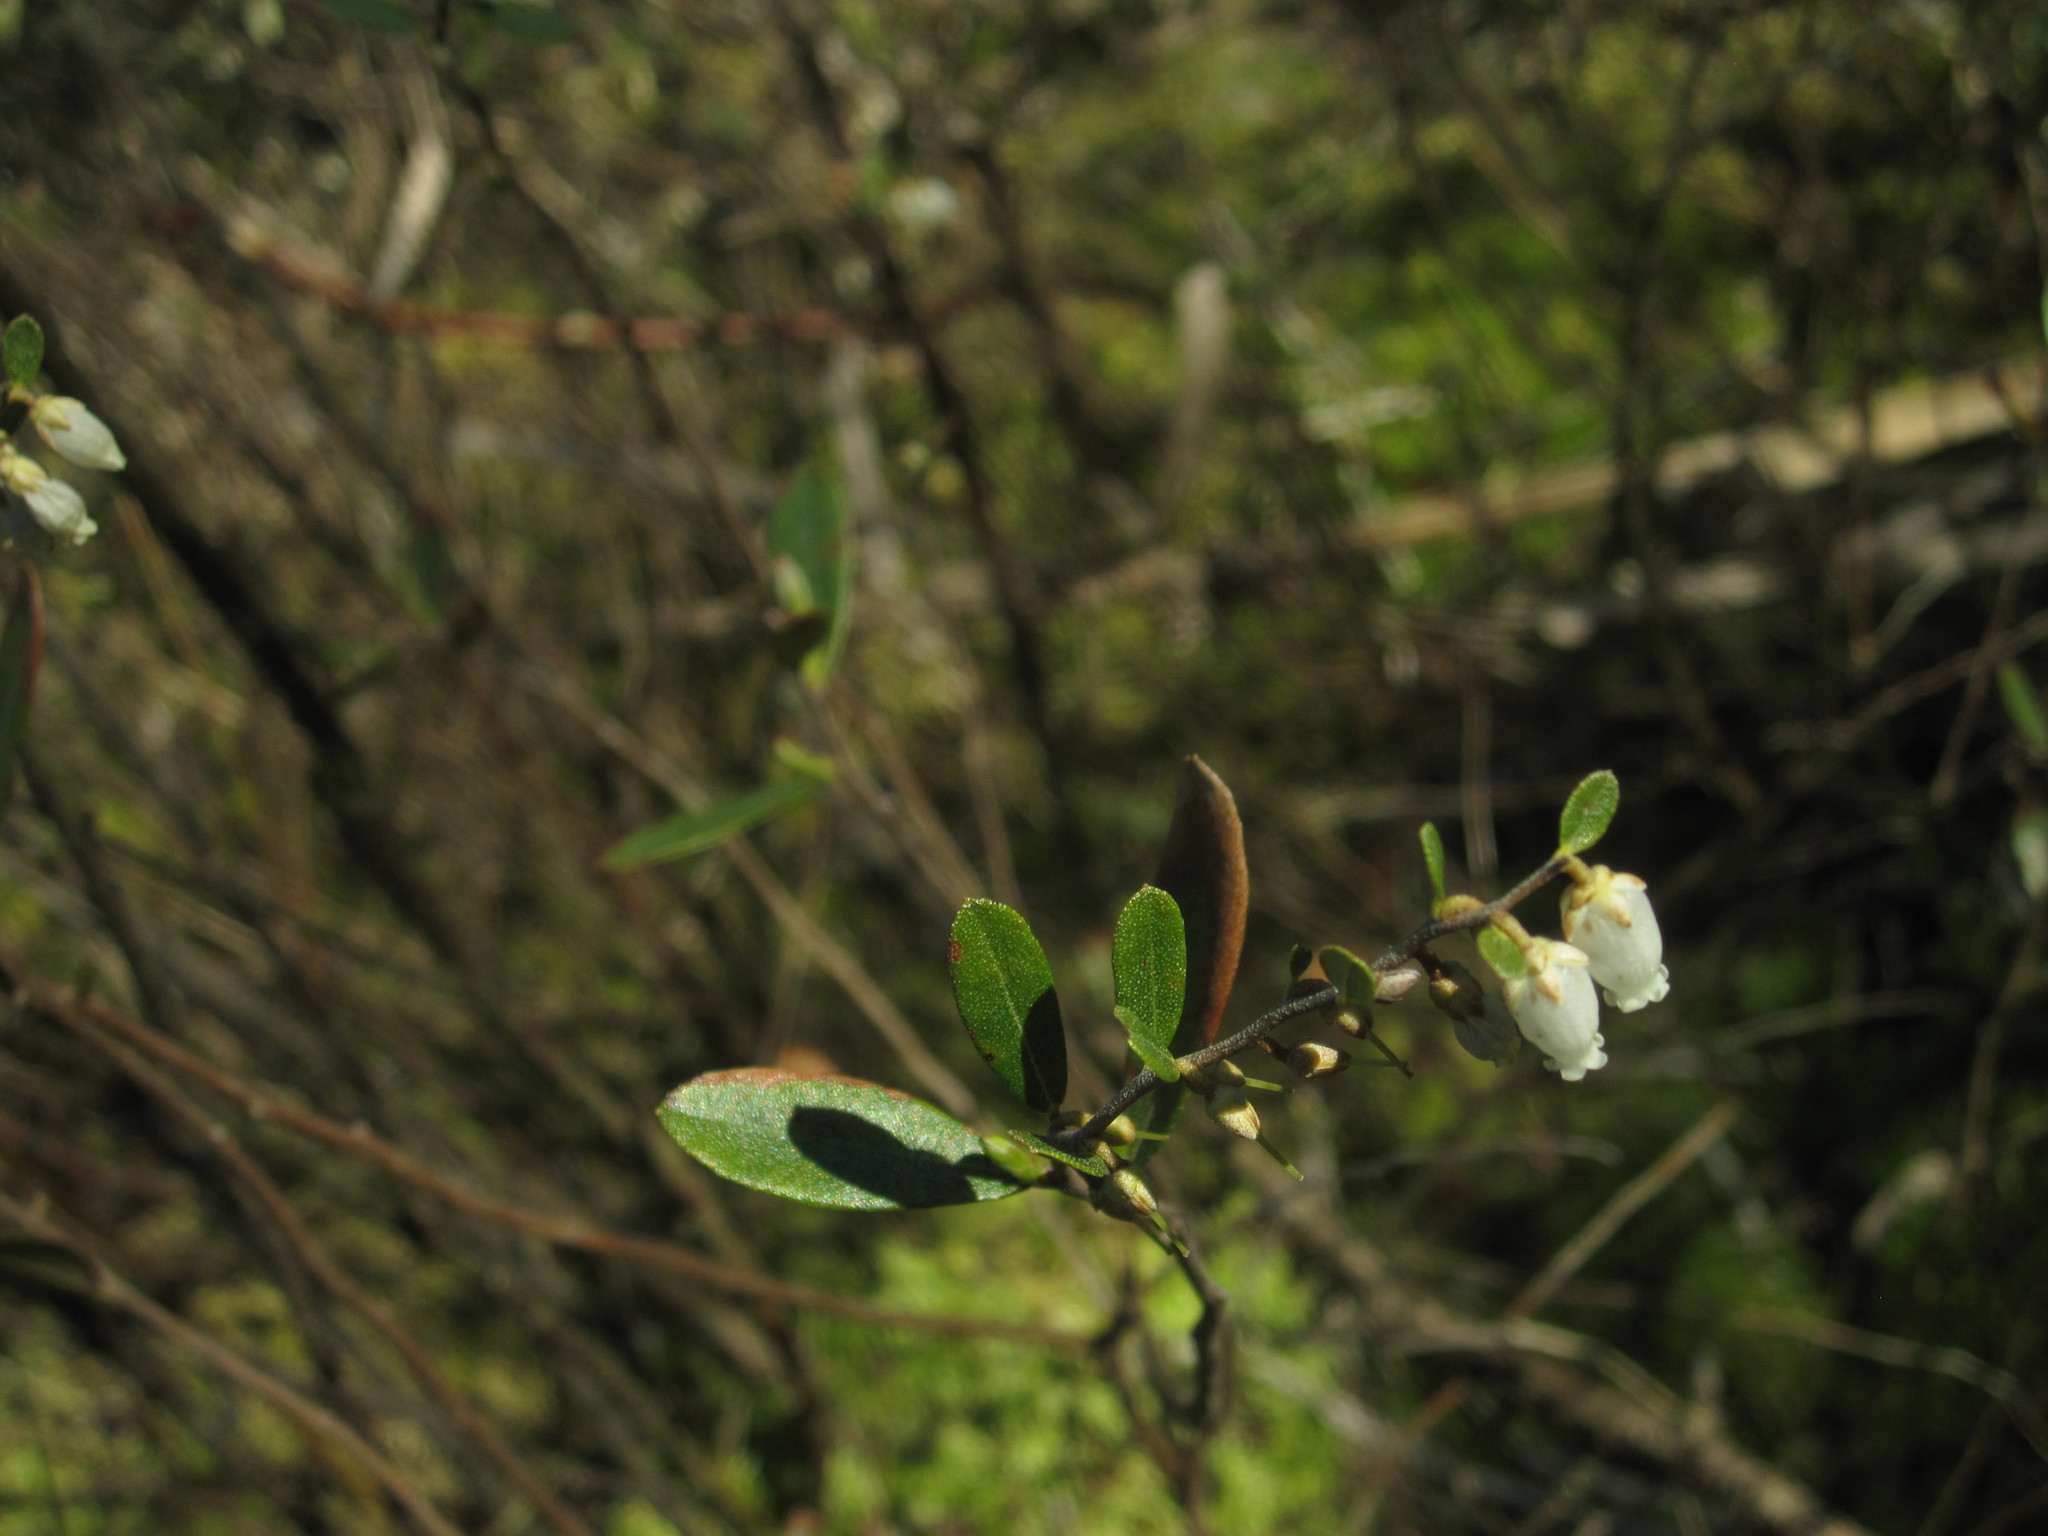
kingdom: Plantae
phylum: Tracheophyta
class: Magnoliopsida
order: Ericales
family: Ericaceae
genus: Chamaedaphne
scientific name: Chamaedaphne calyculata
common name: Leatherleaf
